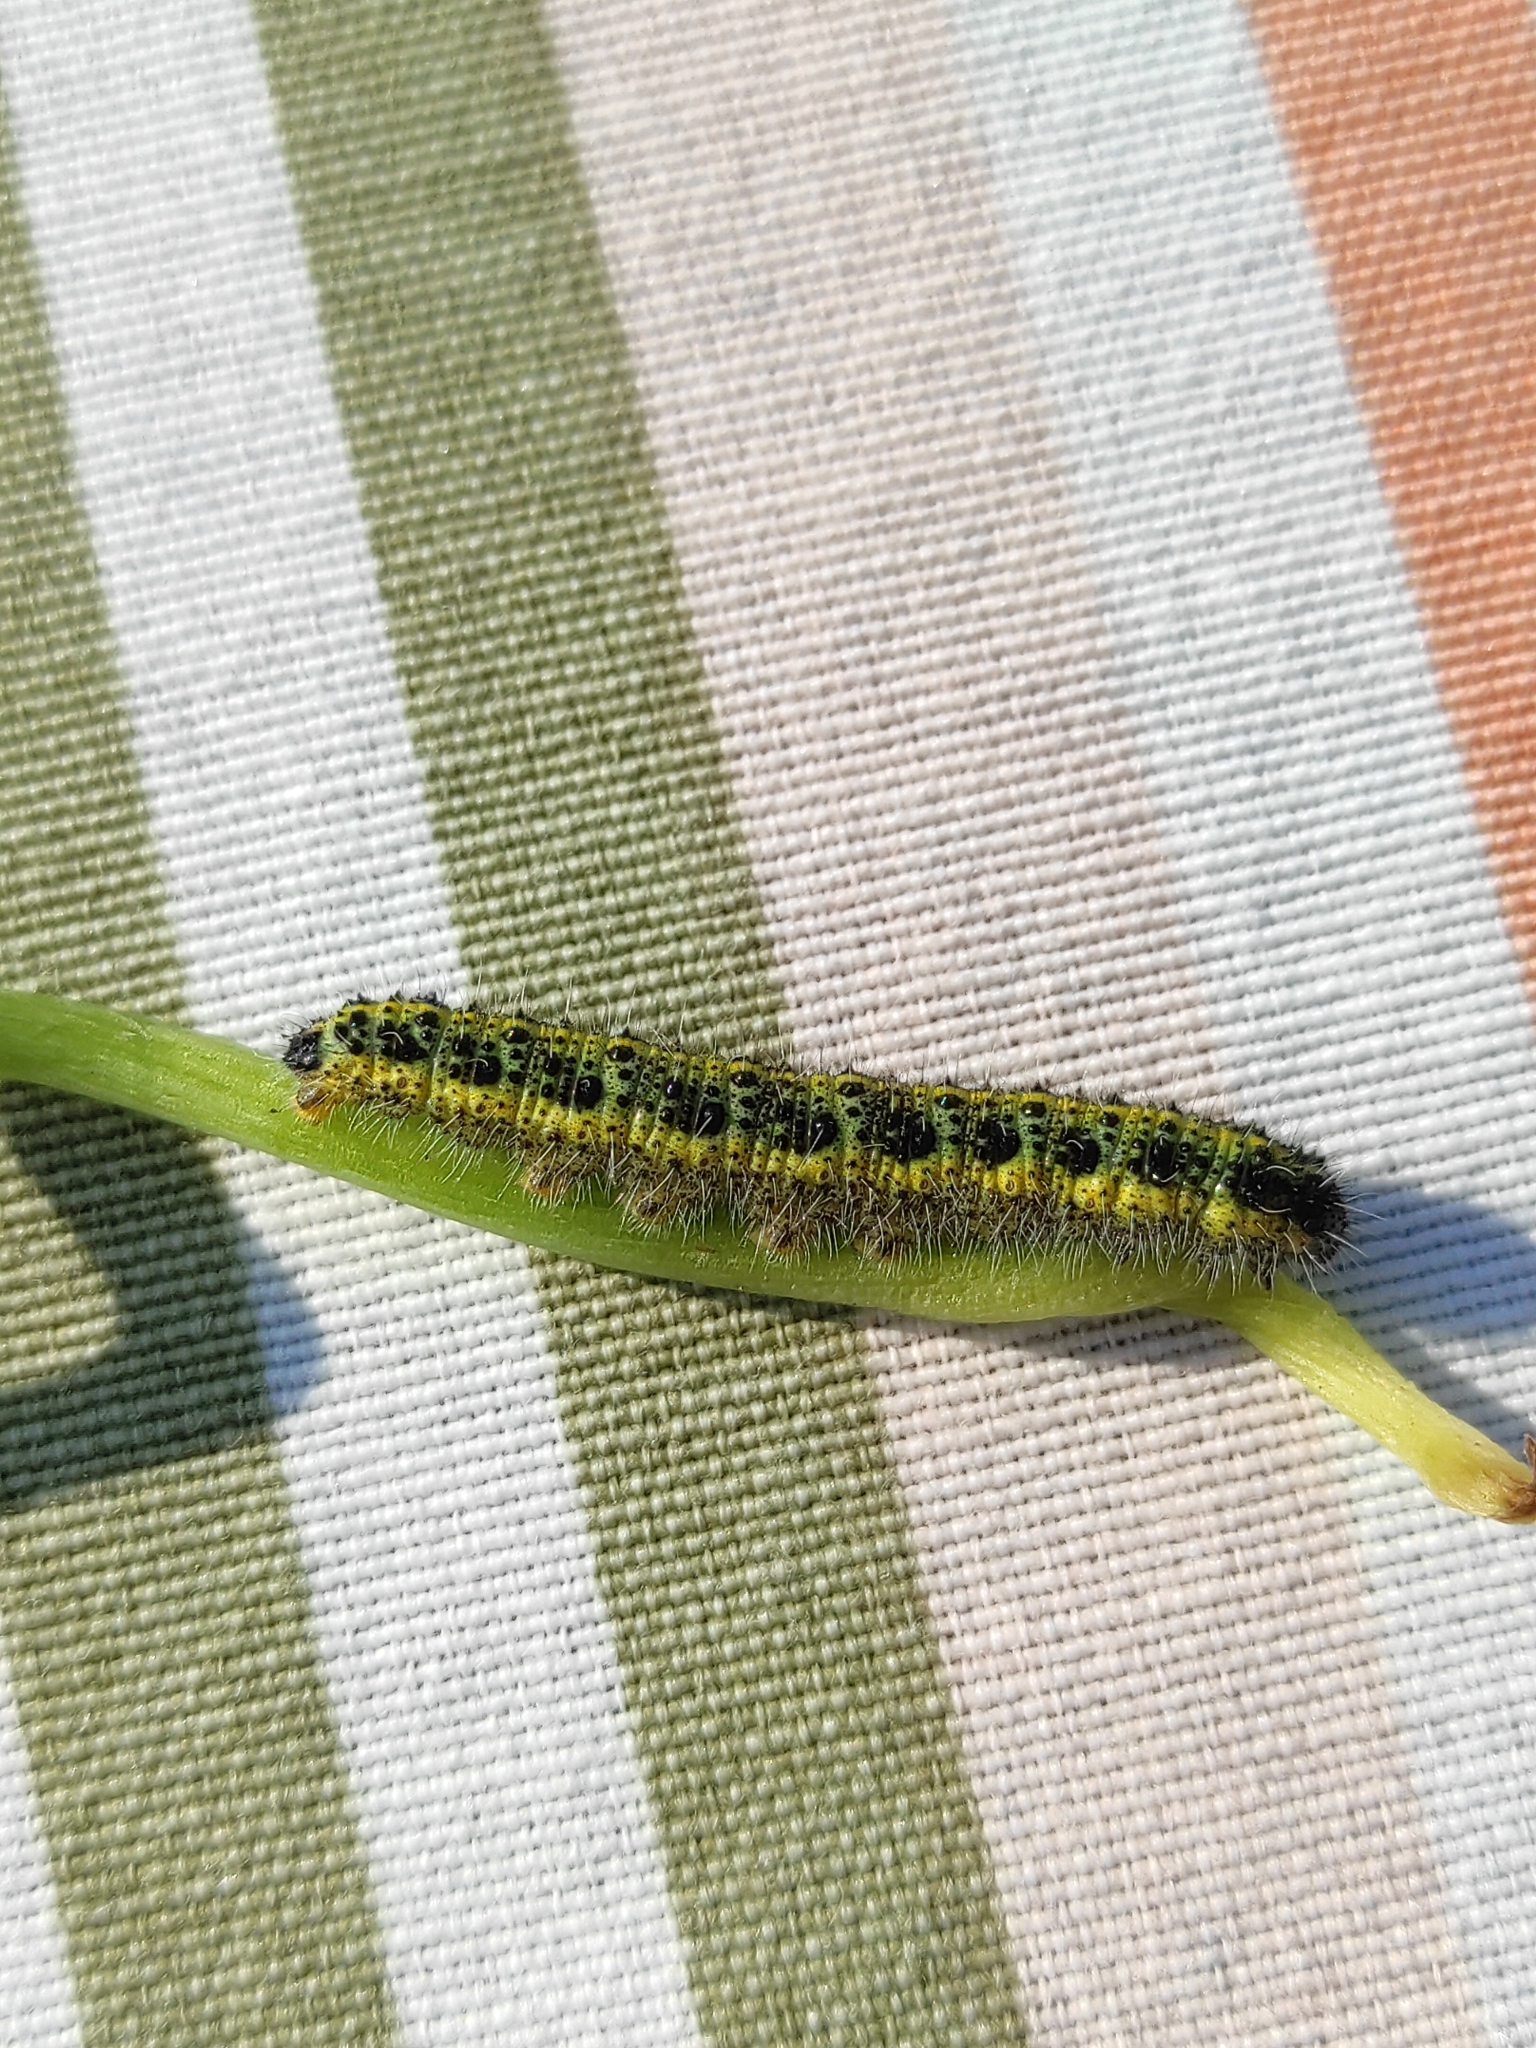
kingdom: Animalia
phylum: Arthropoda
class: Insecta
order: Lepidoptera
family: Pieridae
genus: Pieris
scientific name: Pieris brassicae
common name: Large white
